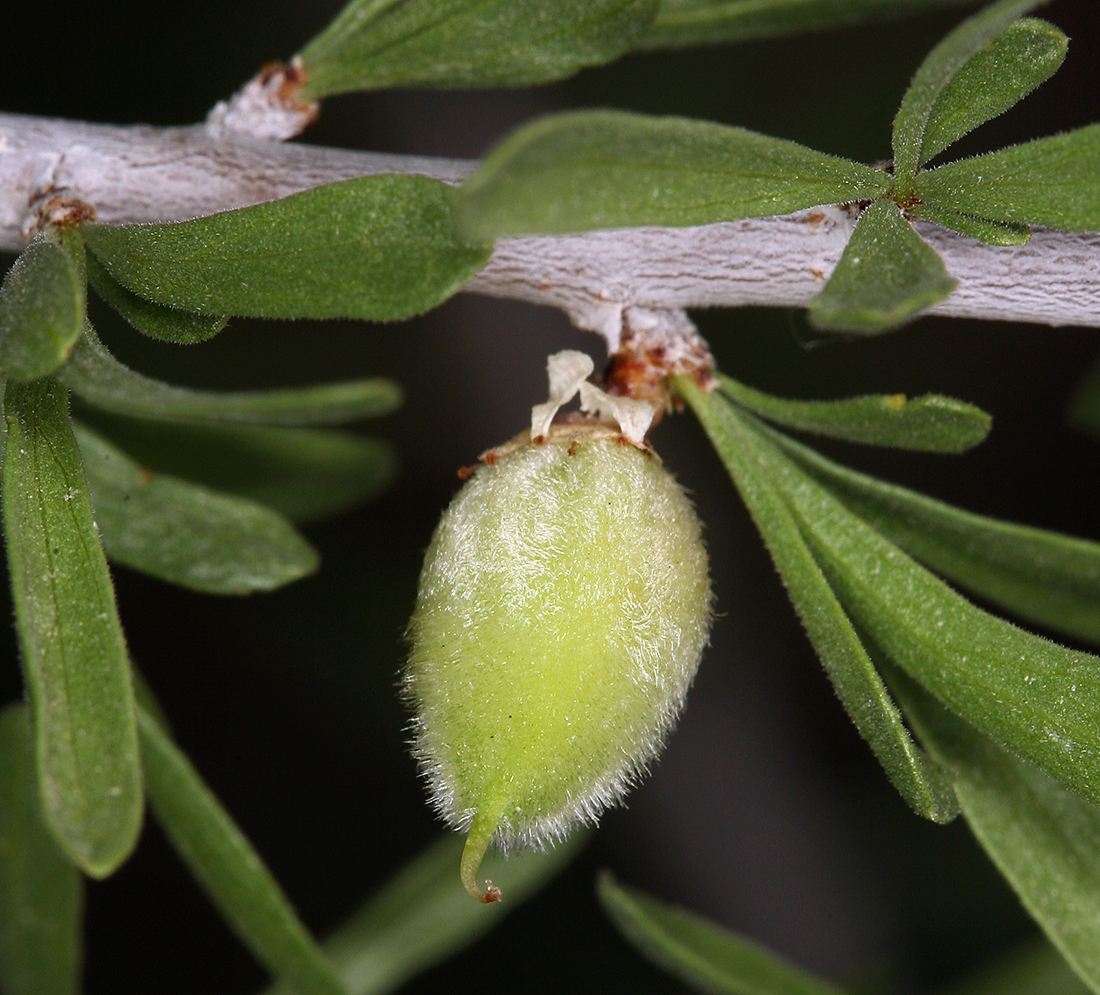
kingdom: Plantae
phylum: Tracheophyta
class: Magnoliopsida
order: Rosales
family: Rosaceae
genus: Prunus
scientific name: Prunus fasciculata
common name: Desert almond
